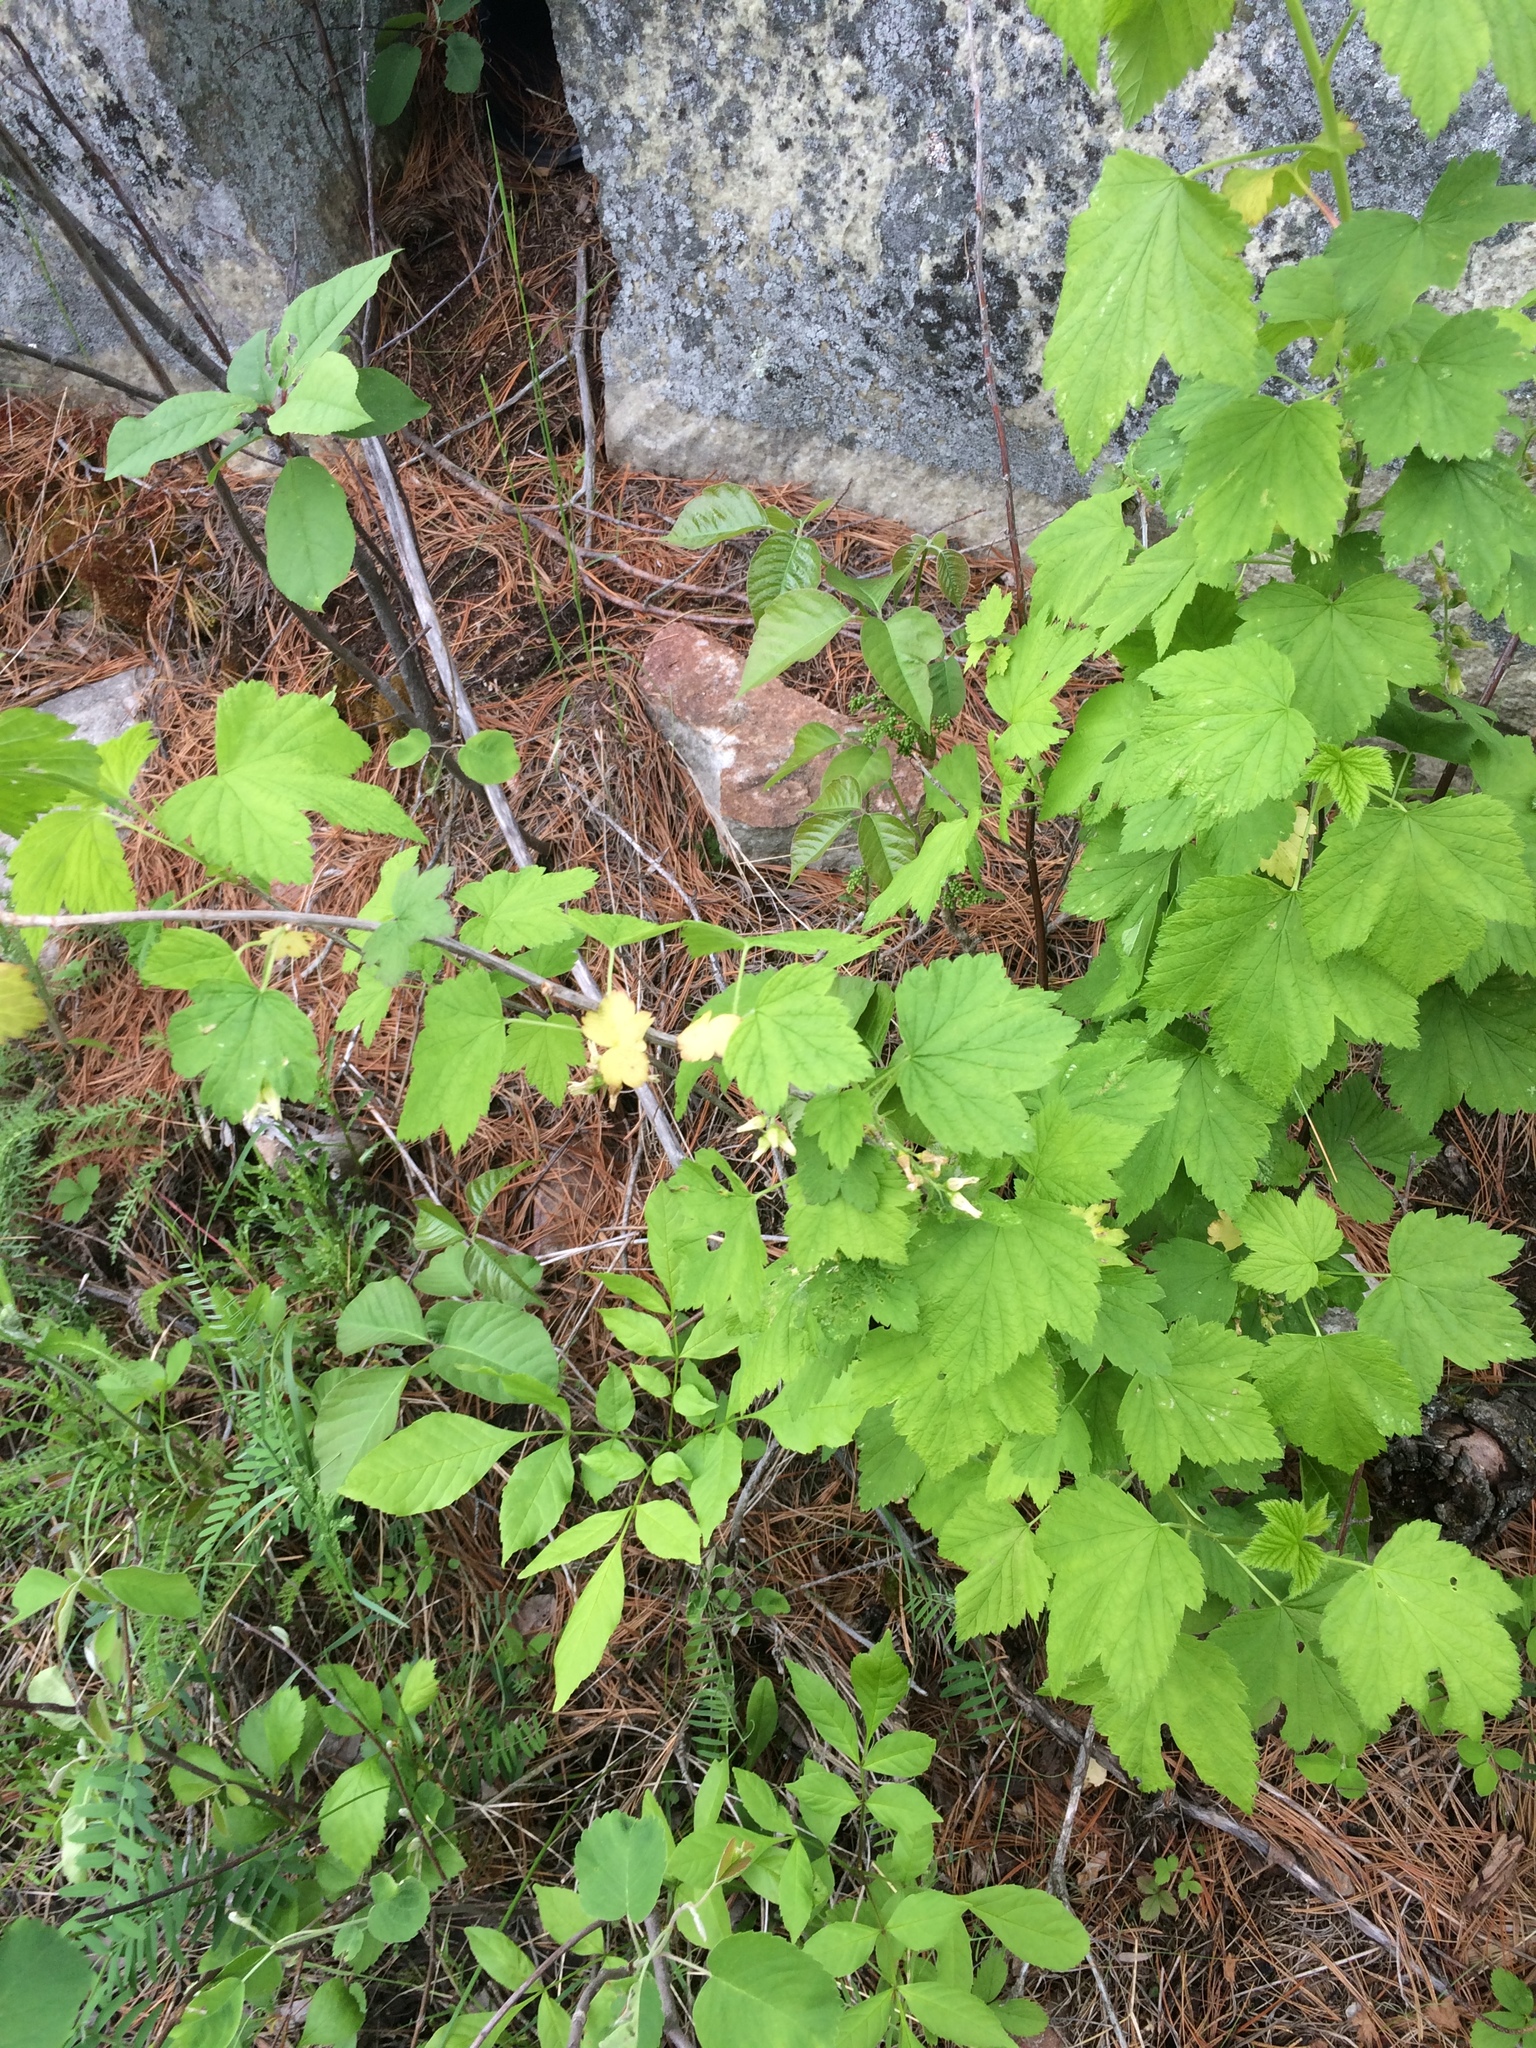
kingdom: Plantae
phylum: Tracheophyta
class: Magnoliopsida
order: Saxifragales
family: Grossulariaceae
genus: Ribes
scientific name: Ribes americanum
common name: American black currant
